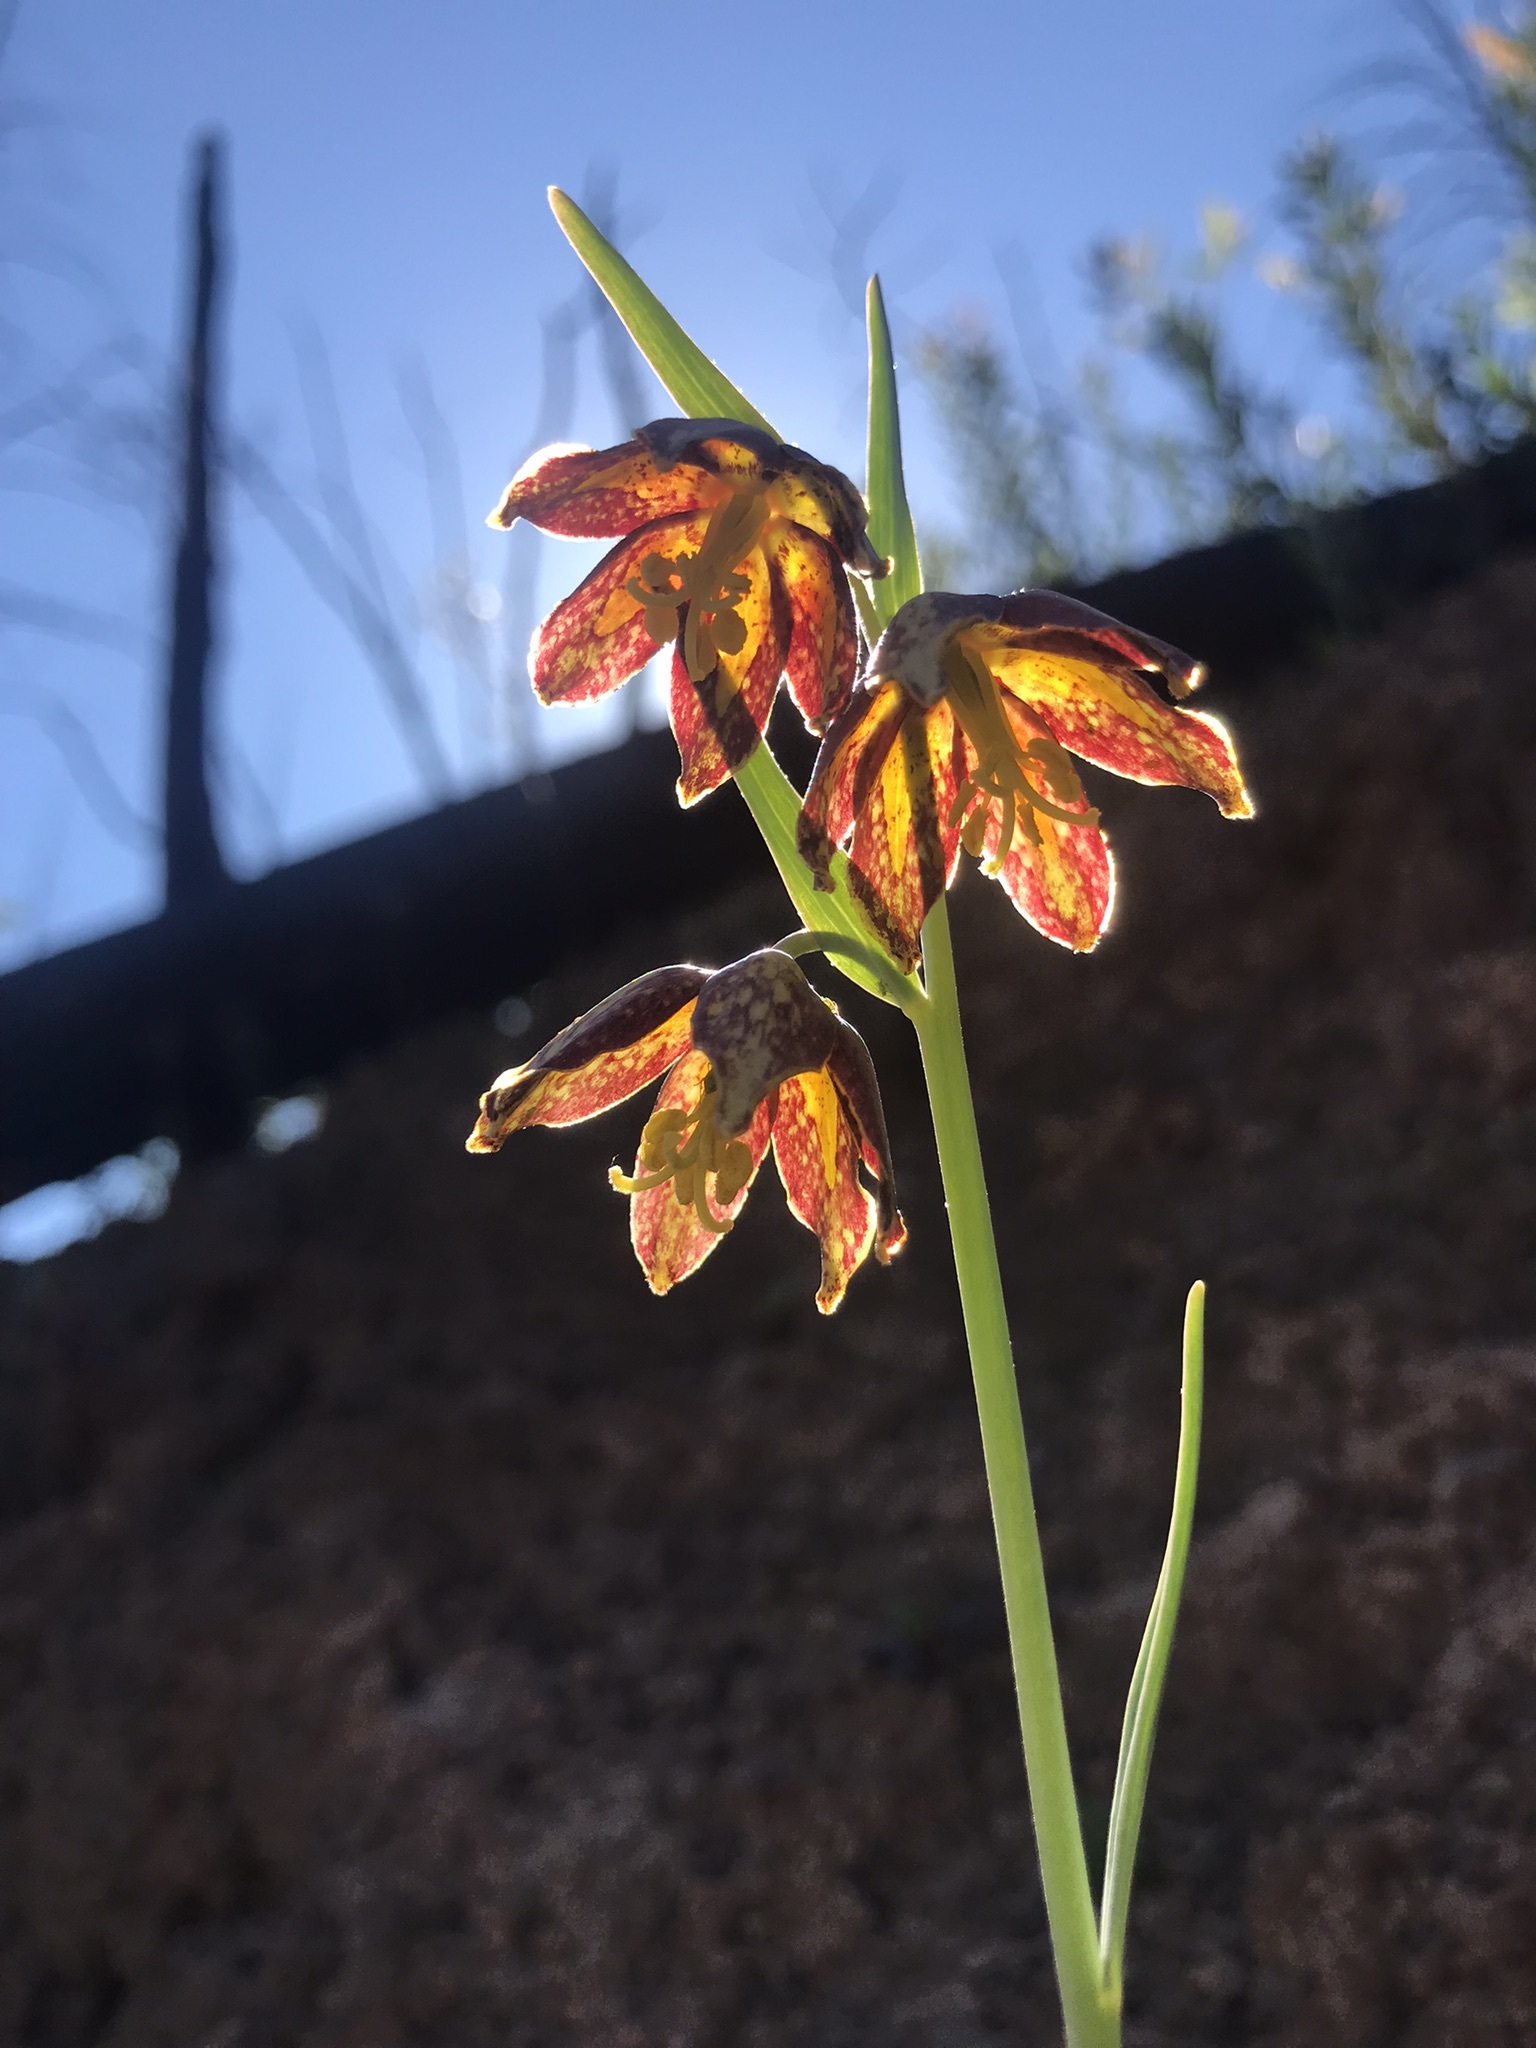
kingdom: Plantae
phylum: Tracheophyta
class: Liliopsida
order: Liliales
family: Liliaceae
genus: Fritillaria
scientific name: Fritillaria affinis
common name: Ojai fritillary
